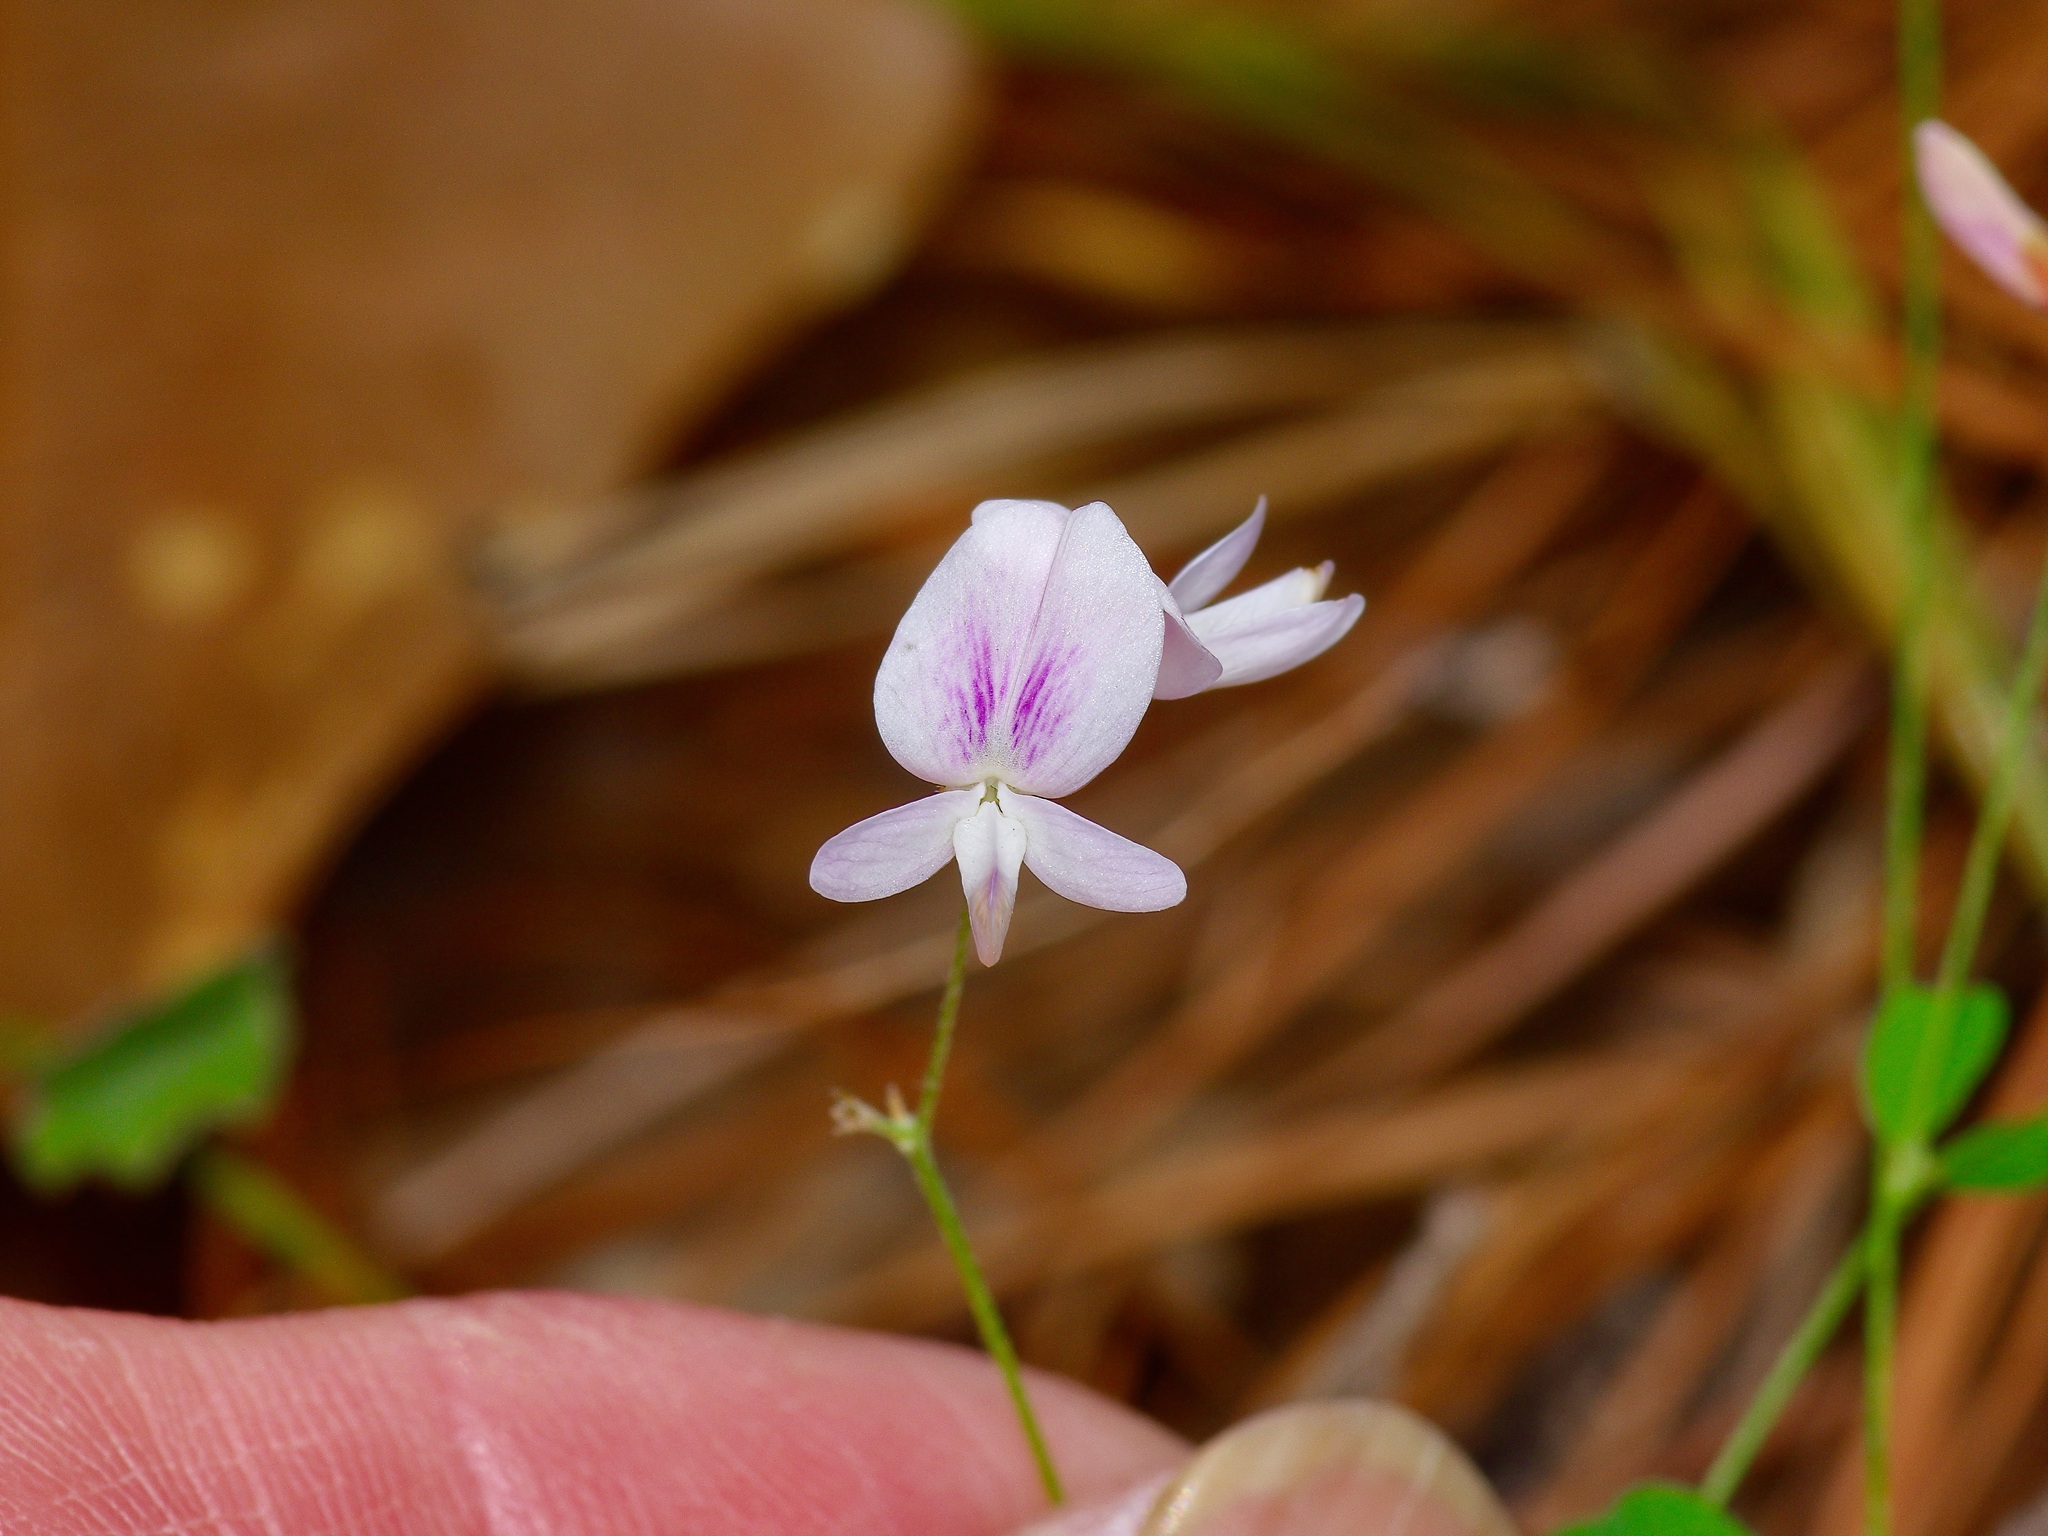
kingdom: Plantae
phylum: Tracheophyta
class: Magnoliopsida
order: Fabales
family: Fabaceae
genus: Lespedeza
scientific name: Lespedeza repens
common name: Creeping bush-clover
